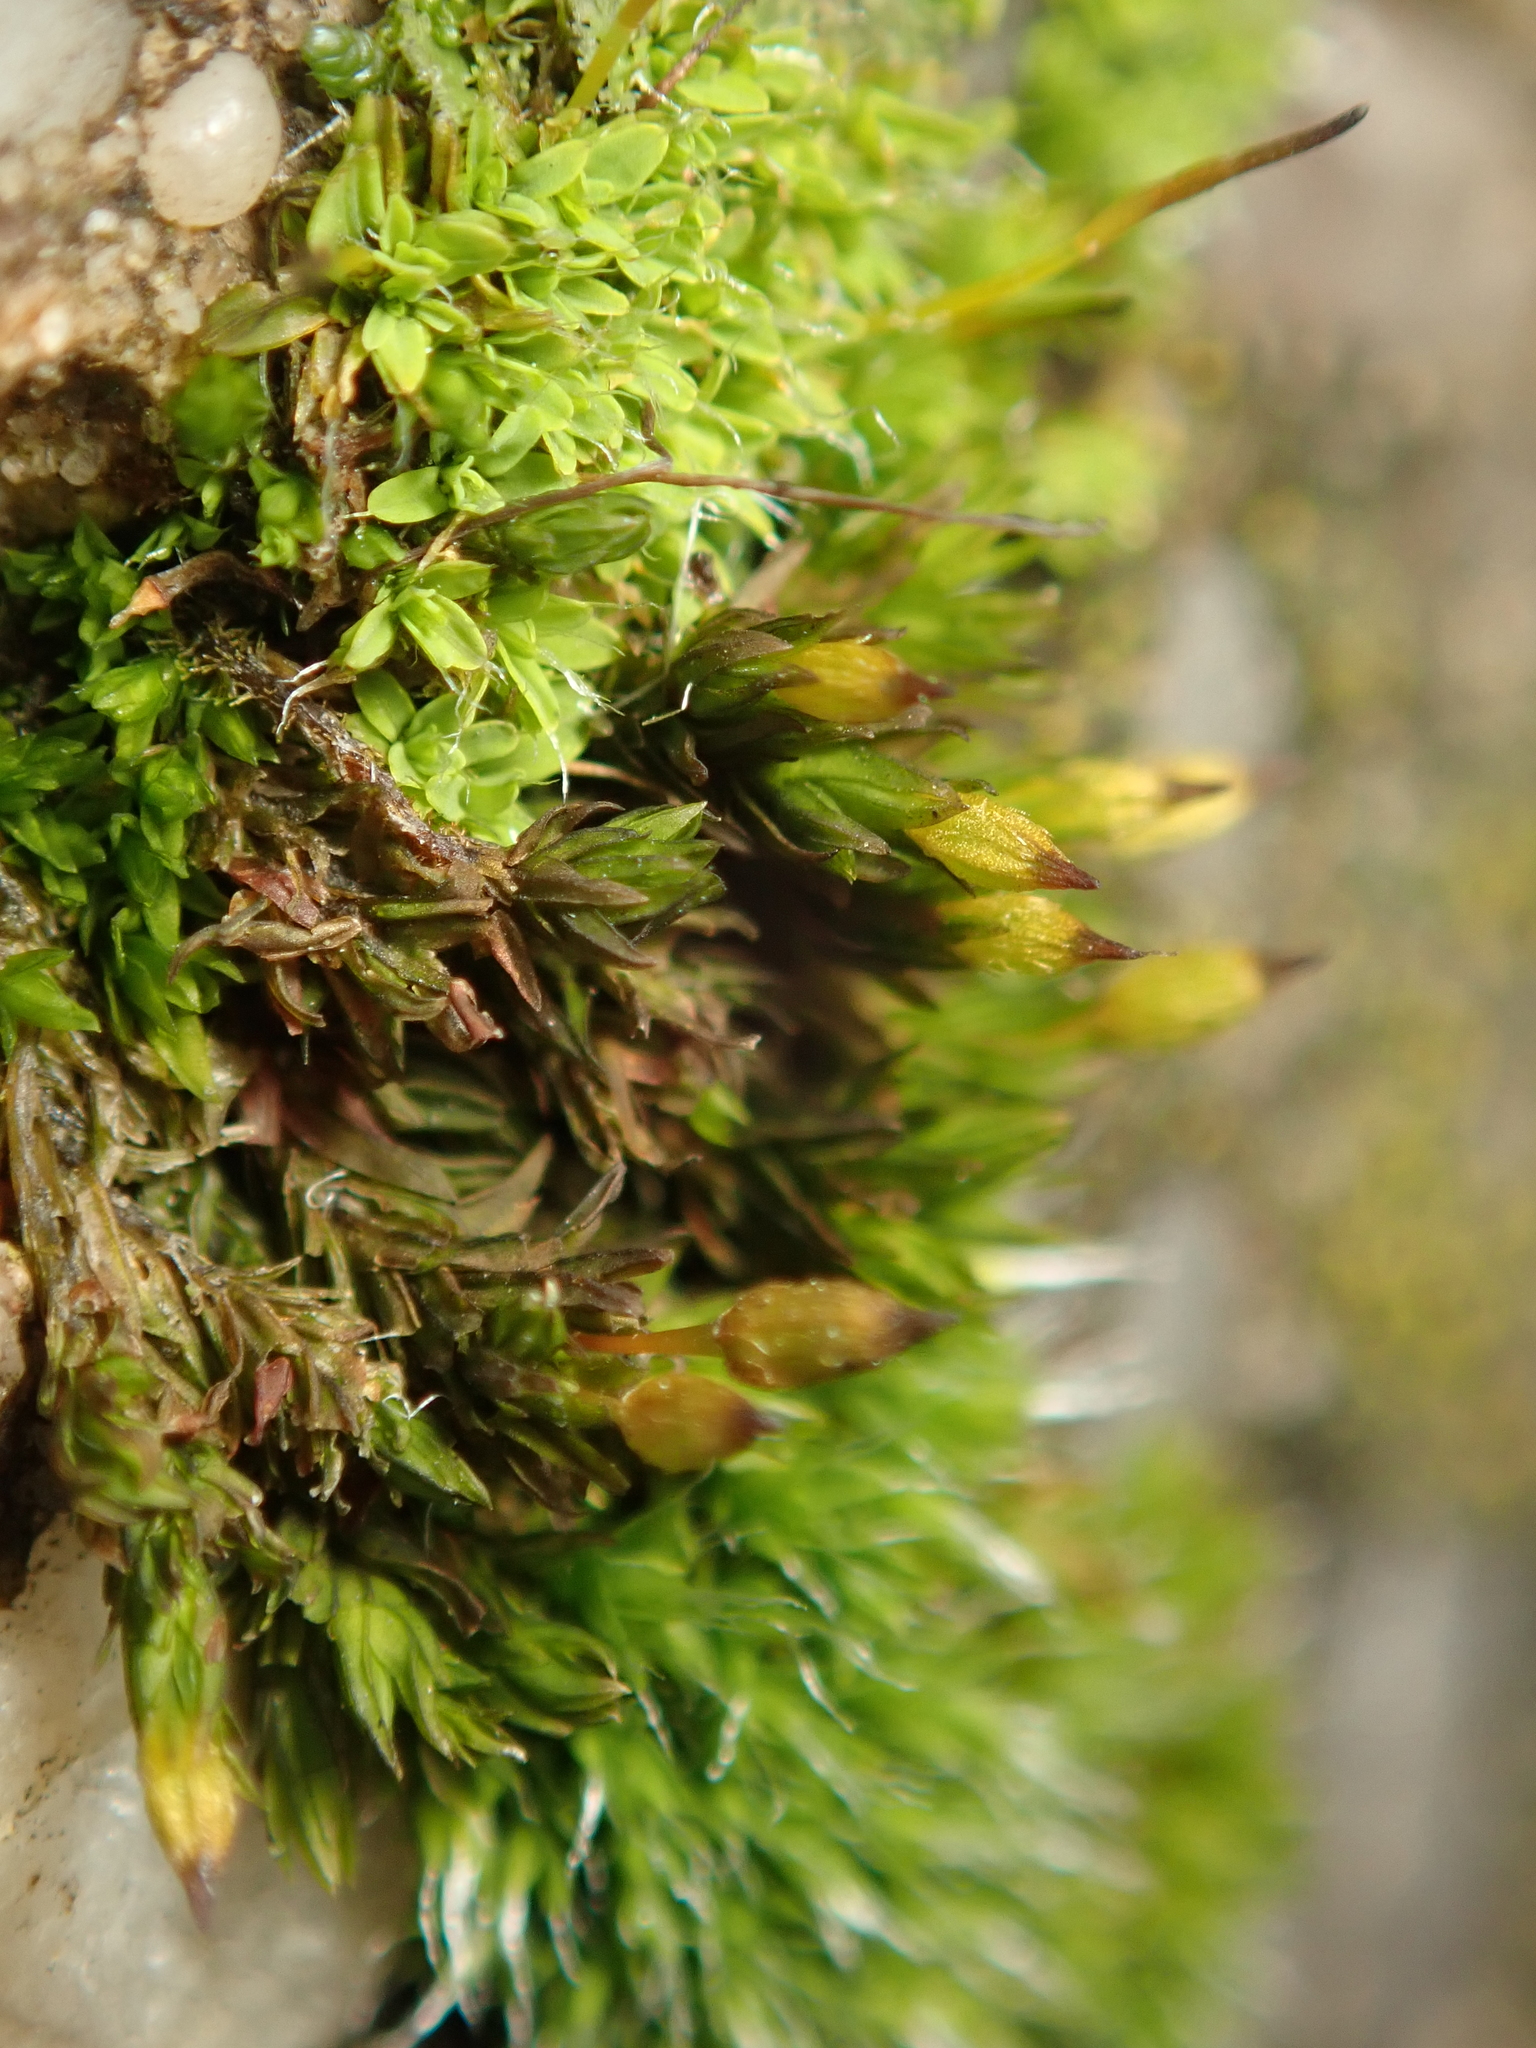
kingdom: Plantae
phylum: Bryophyta
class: Bryopsida
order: Orthotrichales
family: Orthotrichaceae
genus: Orthotrichum
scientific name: Orthotrichum anomalum
